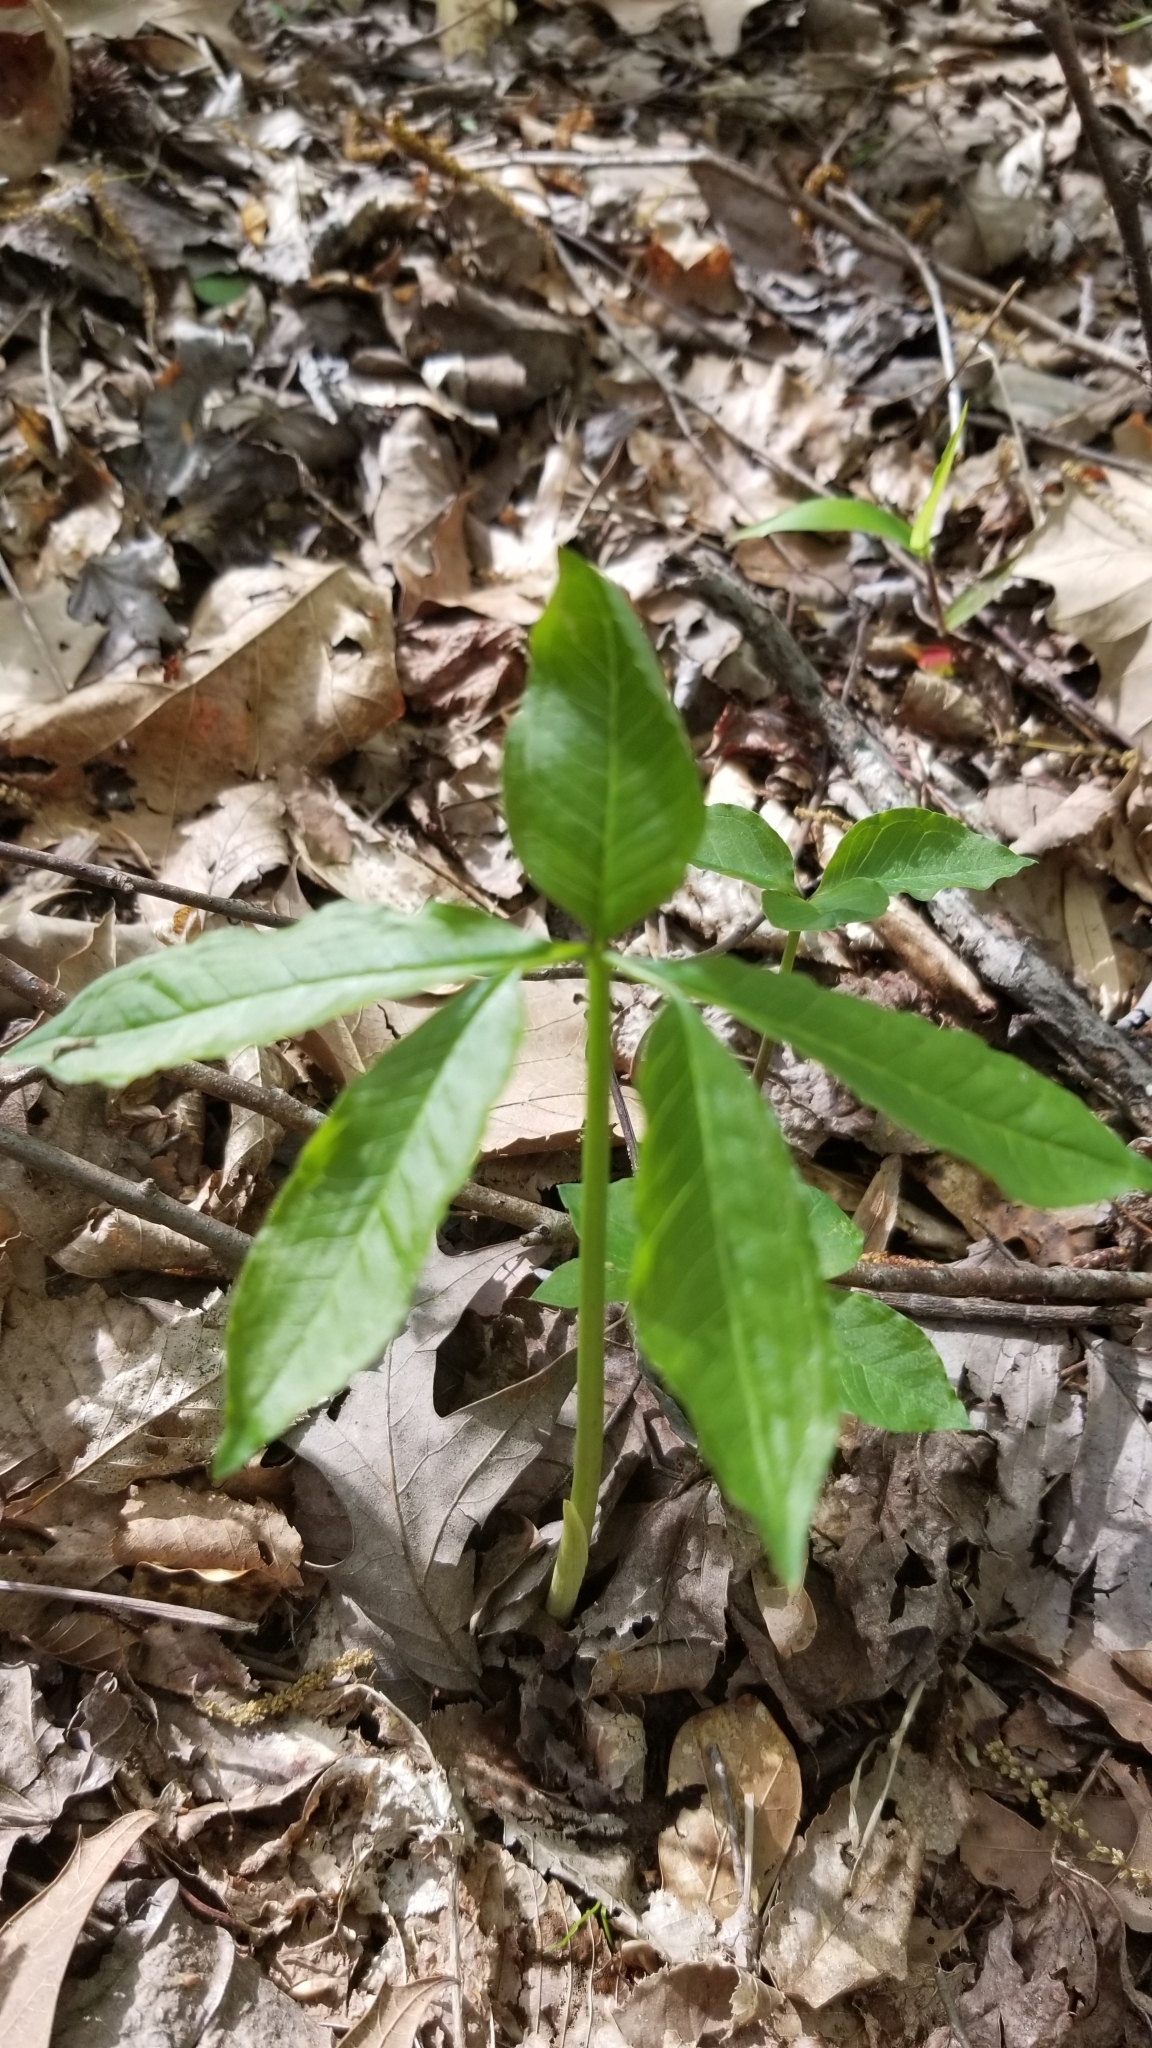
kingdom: Plantae
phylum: Tracheophyta
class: Liliopsida
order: Alismatales
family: Araceae
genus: Arisaema
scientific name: Arisaema quinatum
